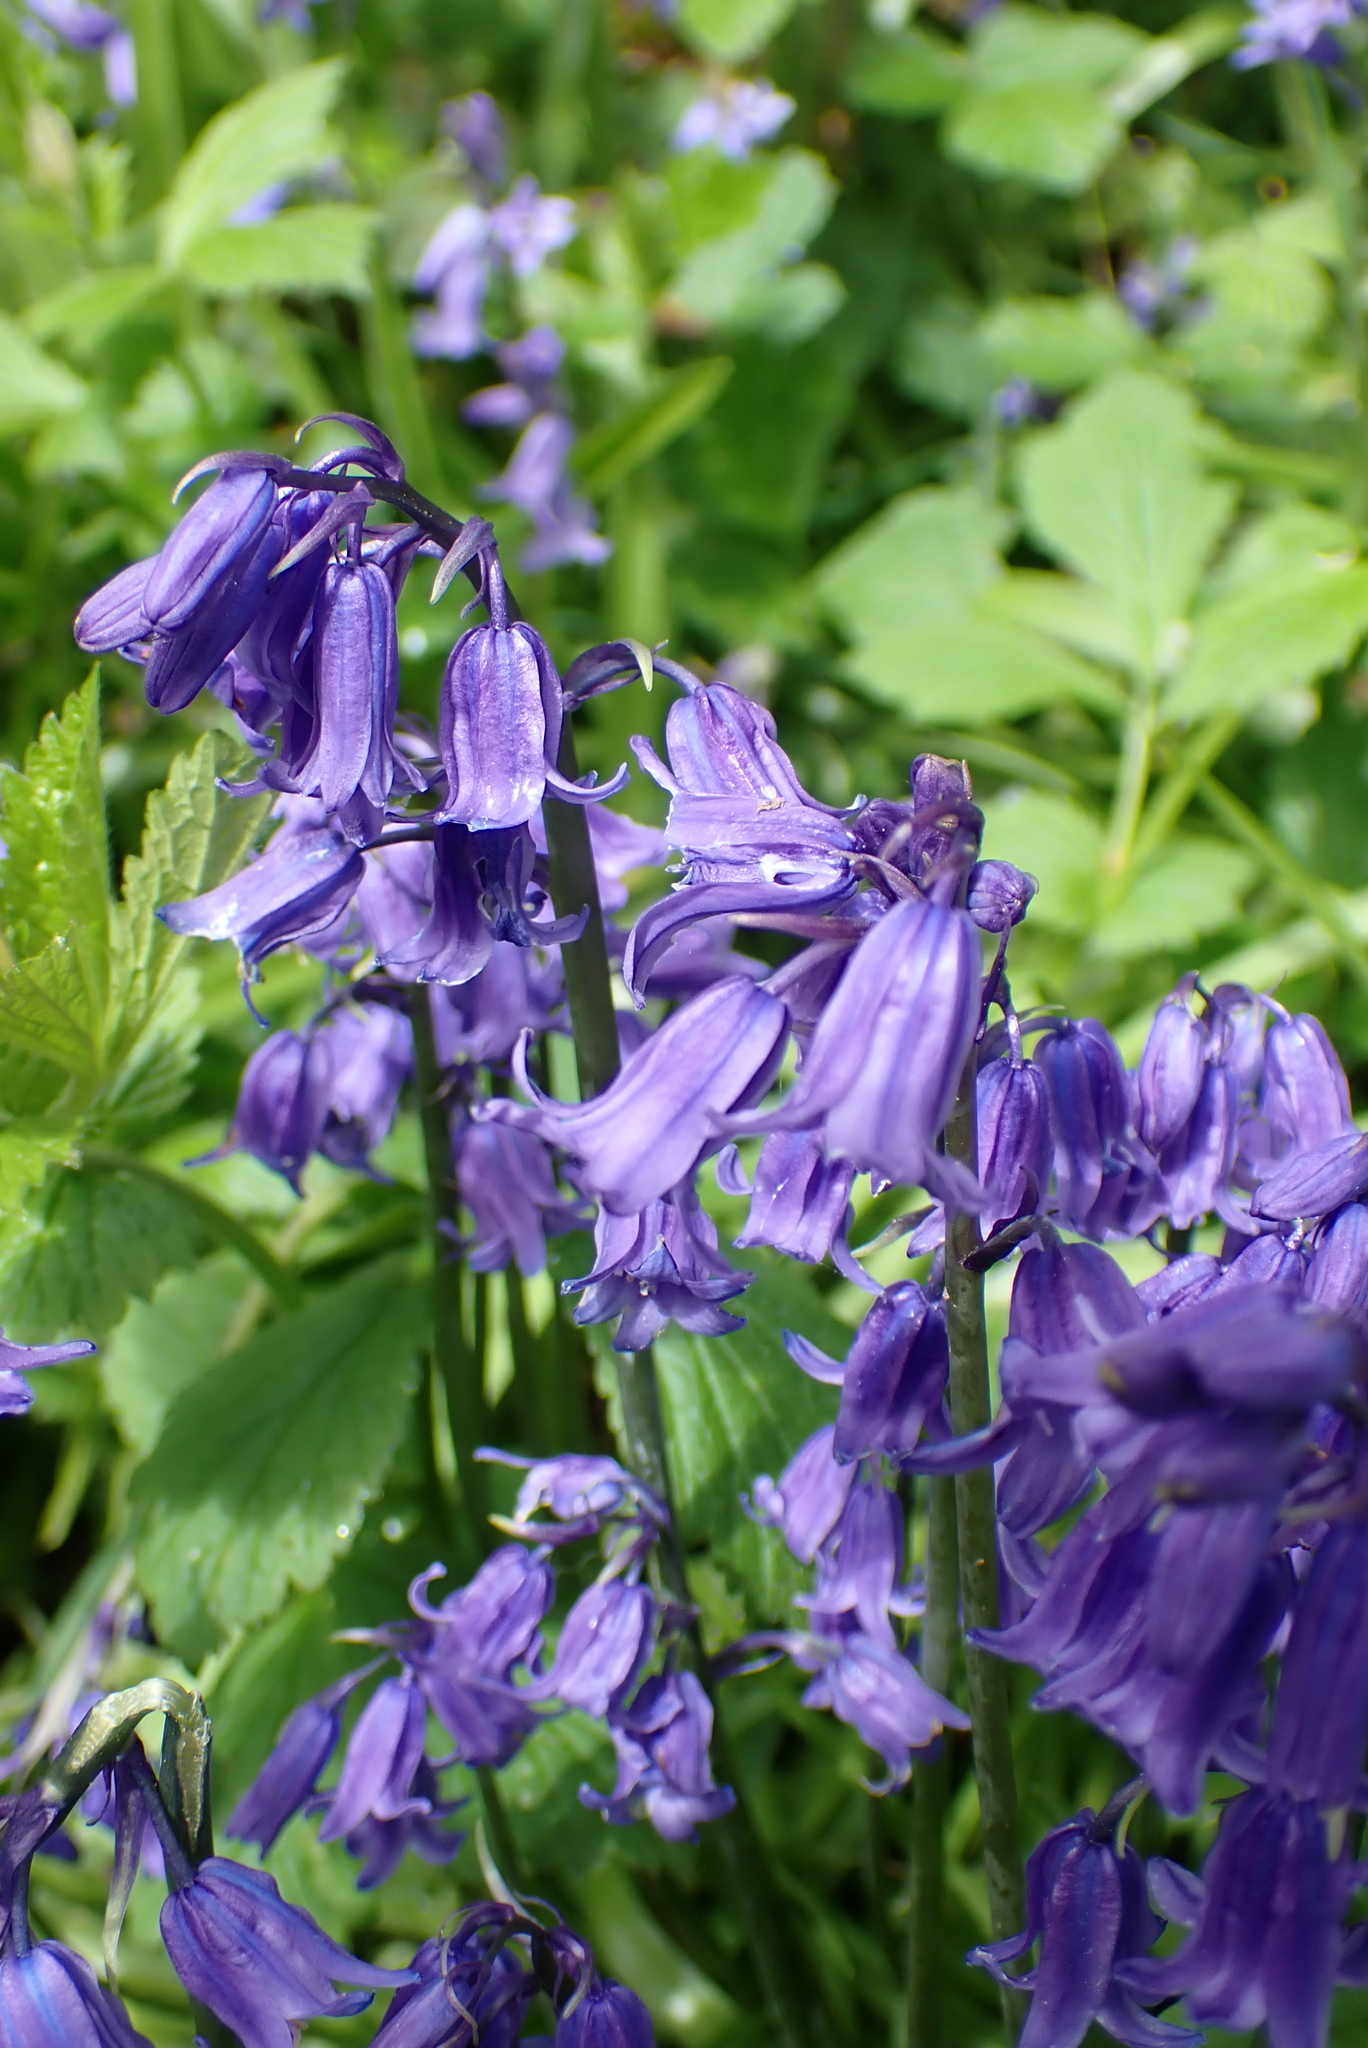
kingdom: Plantae
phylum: Tracheophyta
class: Liliopsida
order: Asparagales
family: Asparagaceae
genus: Hyacinthoides
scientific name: Hyacinthoides non-scripta
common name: Bluebell
